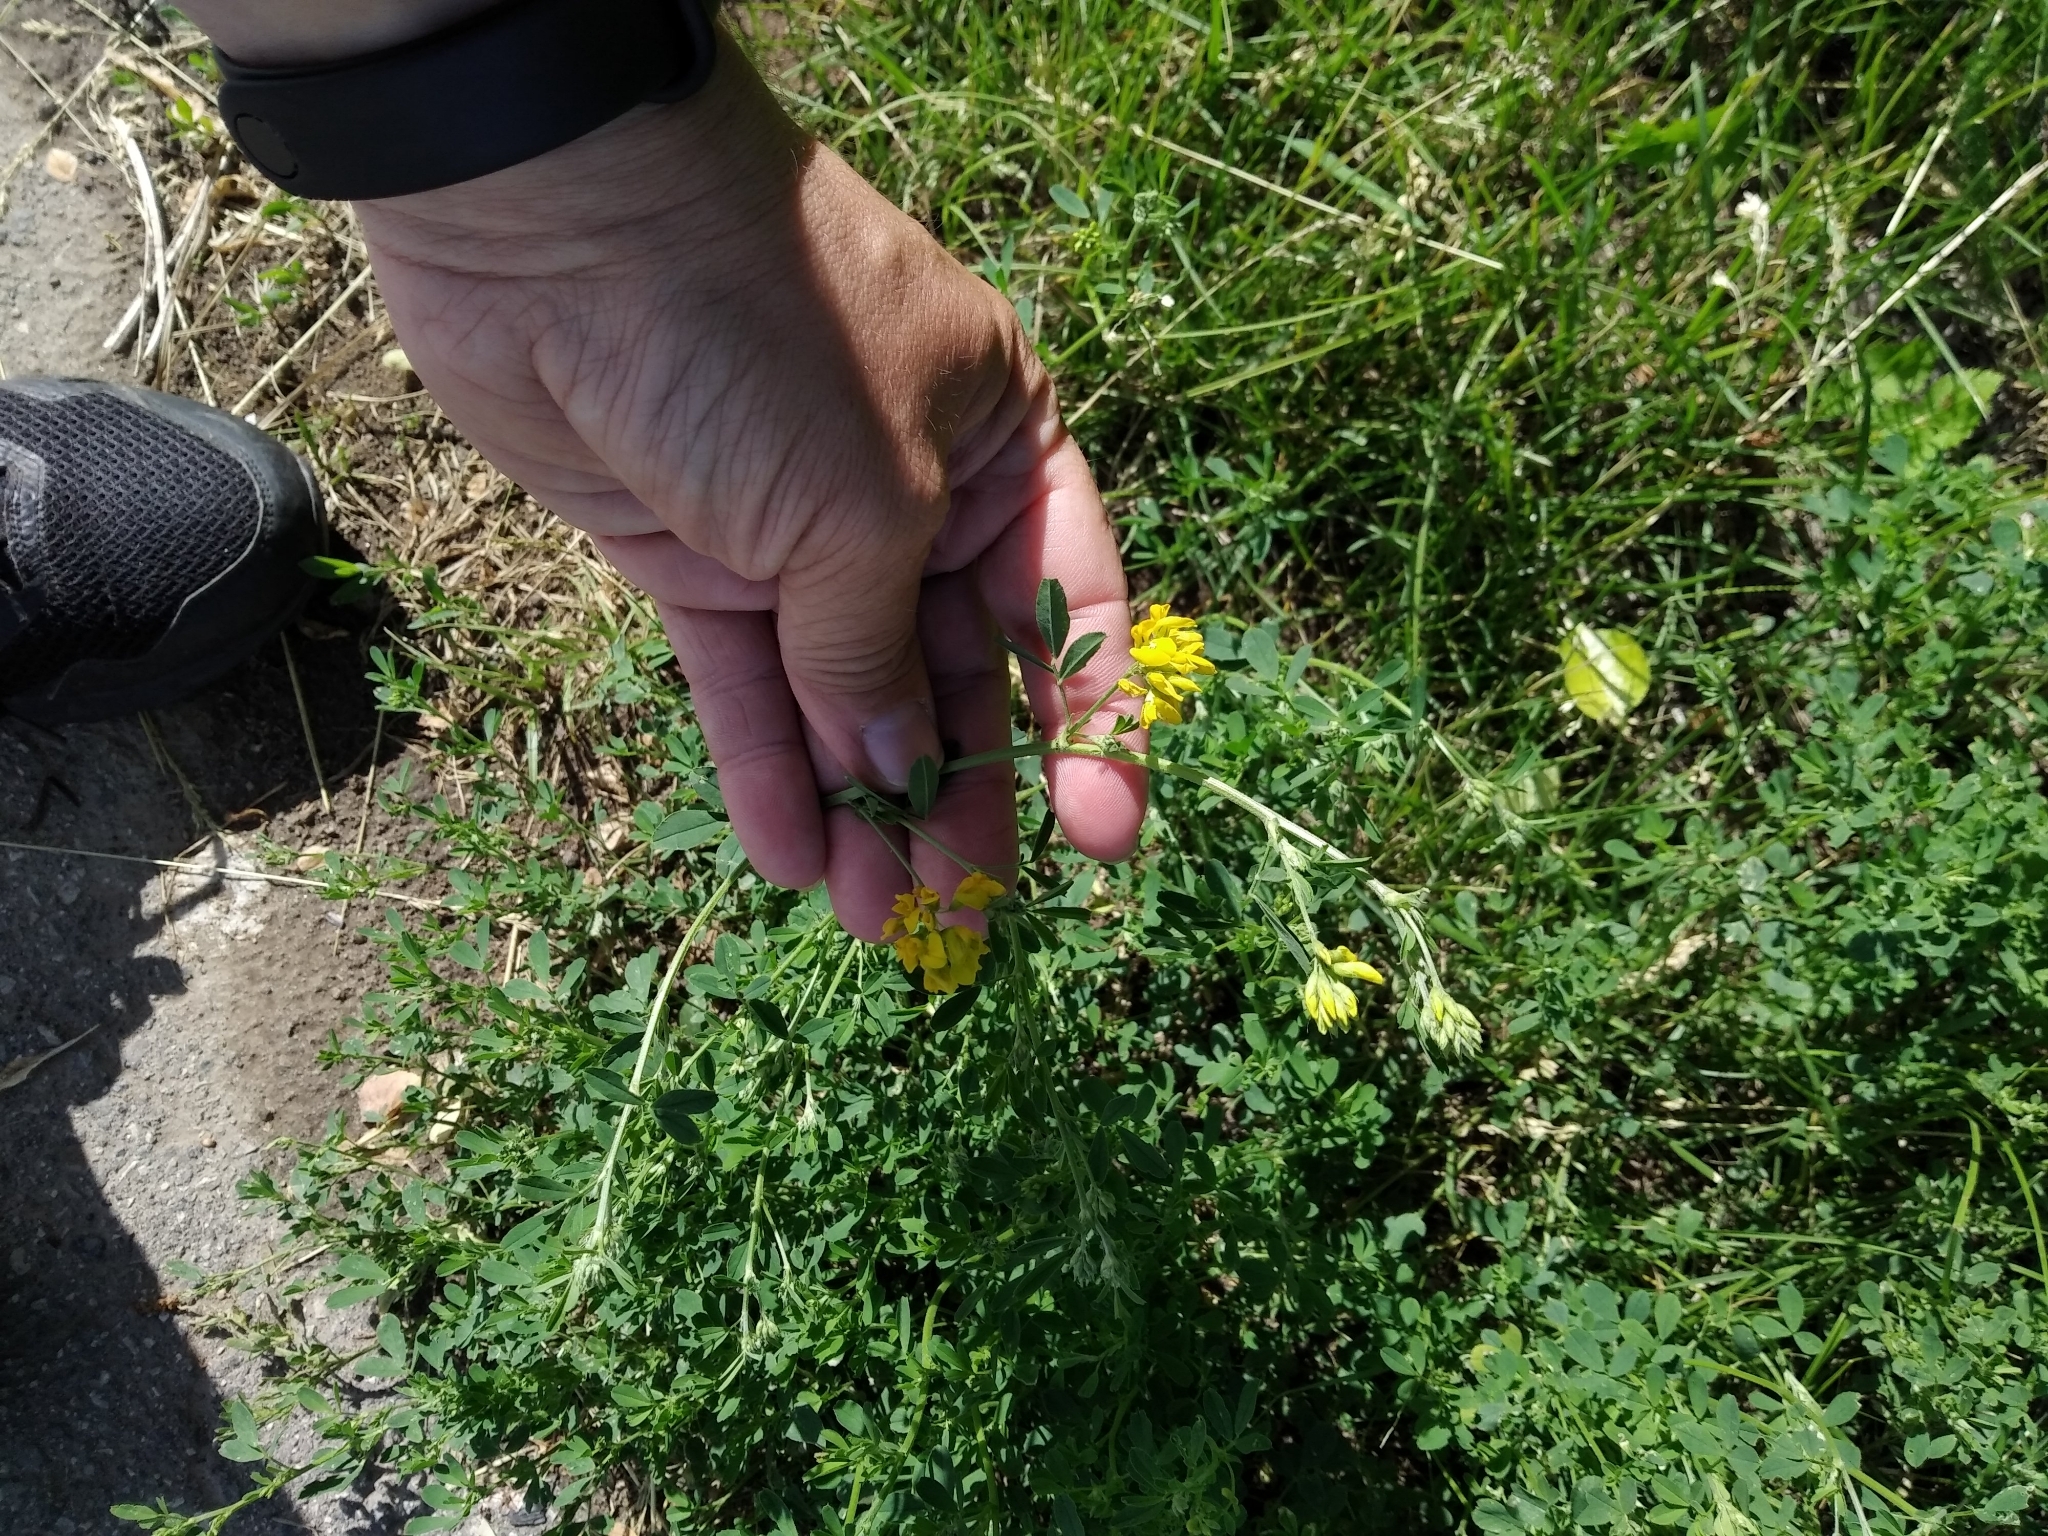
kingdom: Plantae
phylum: Tracheophyta
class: Magnoliopsida
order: Fabales
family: Fabaceae
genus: Medicago
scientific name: Medicago falcata
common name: Sickle medick
